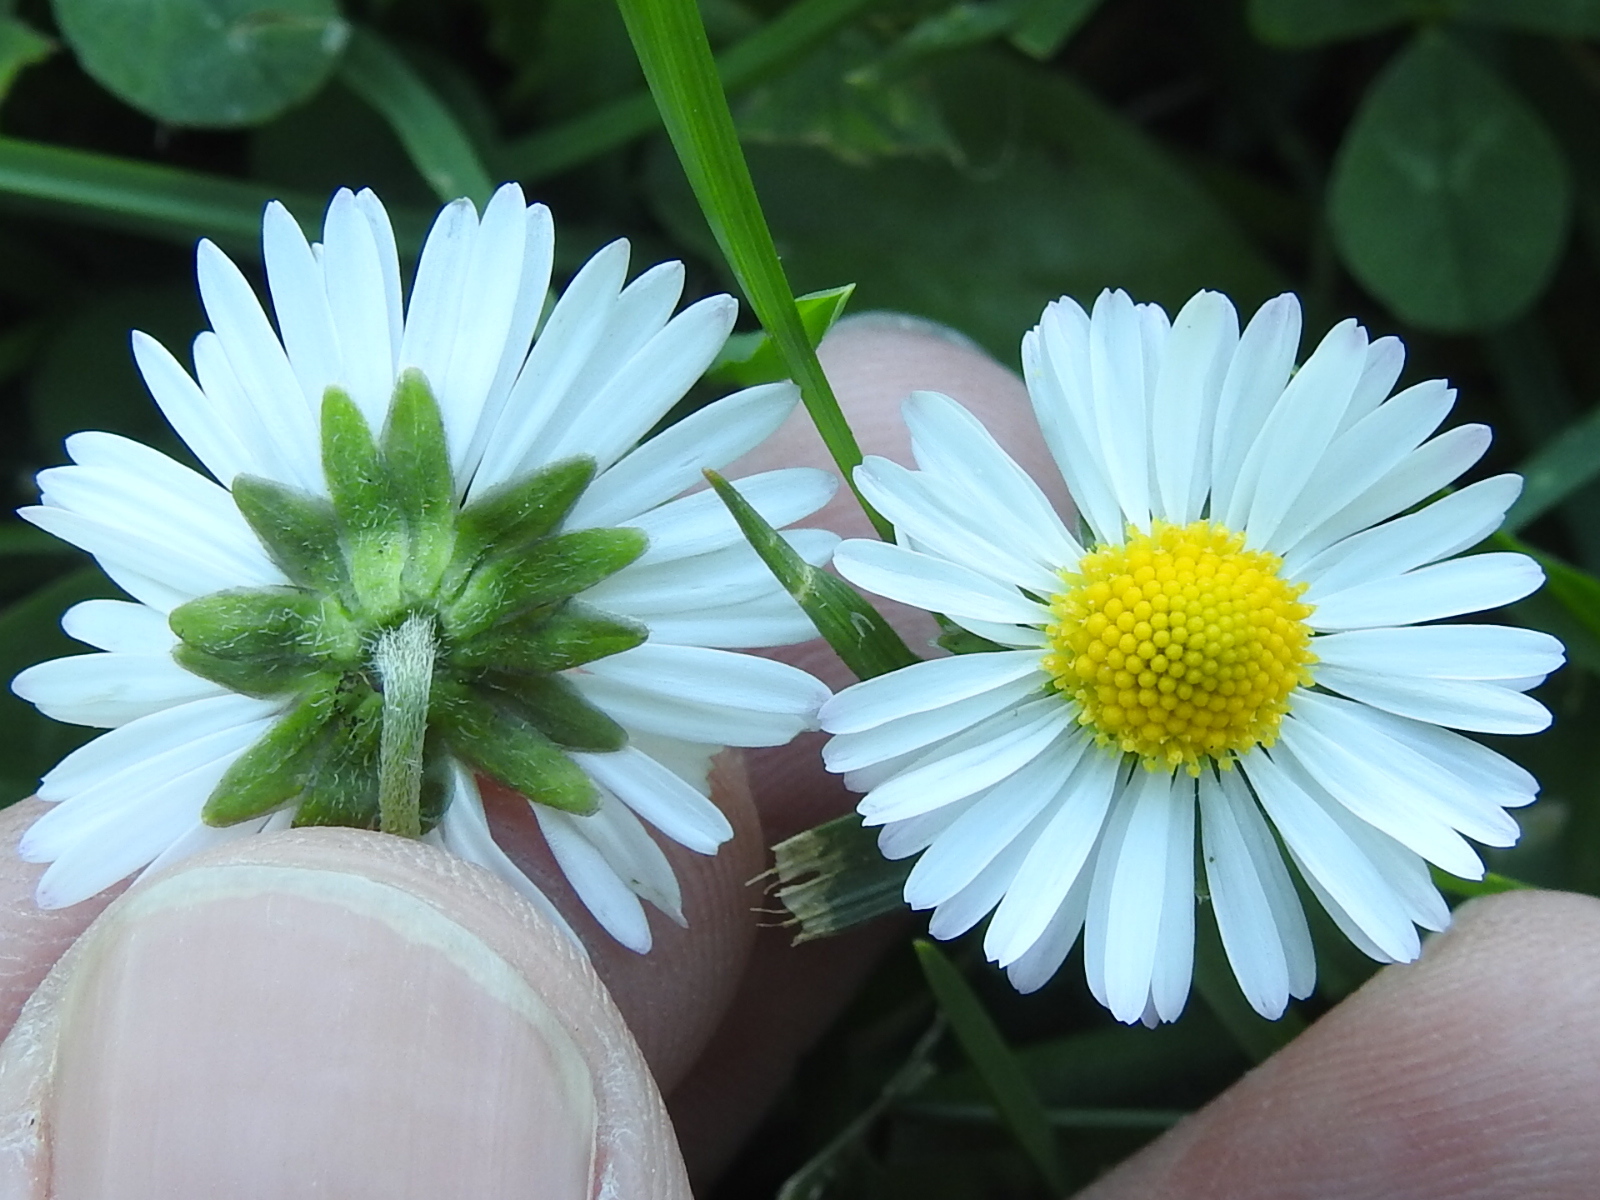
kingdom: Plantae
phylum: Tracheophyta
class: Magnoliopsida
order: Asterales
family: Asteraceae
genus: Bellis
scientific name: Bellis perennis
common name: Lawndaisy
